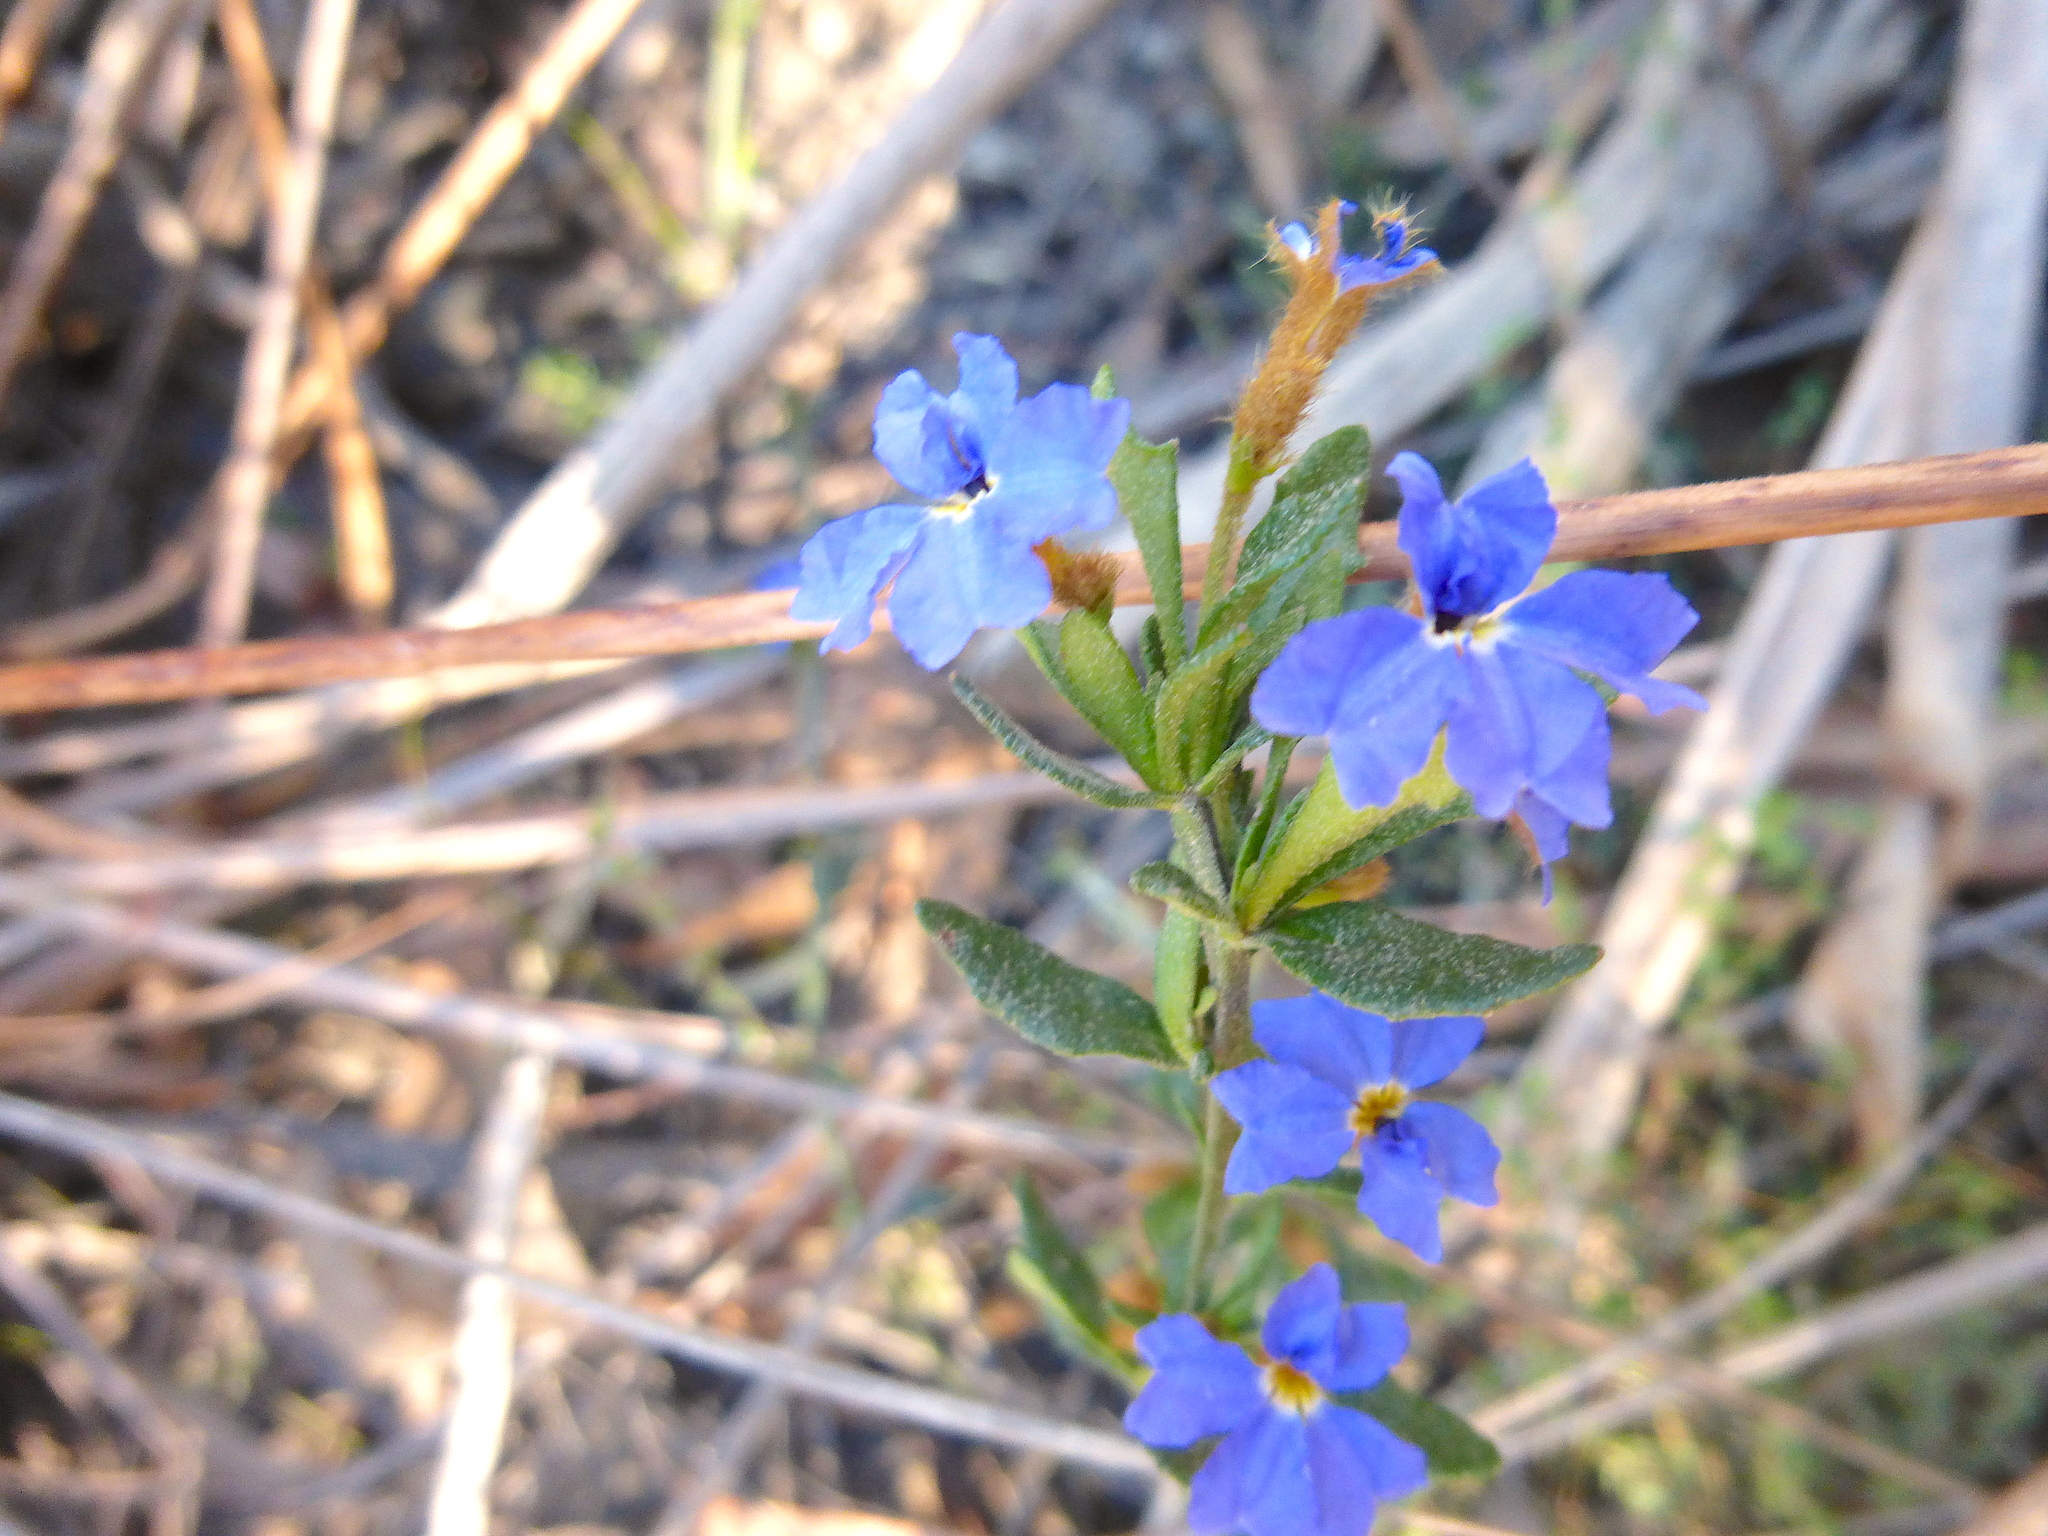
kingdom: Plantae
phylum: Tracheophyta
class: Magnoliopsida
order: Asterales
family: Goodeniaceae
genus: Dampiera
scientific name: Dampiera stricta
